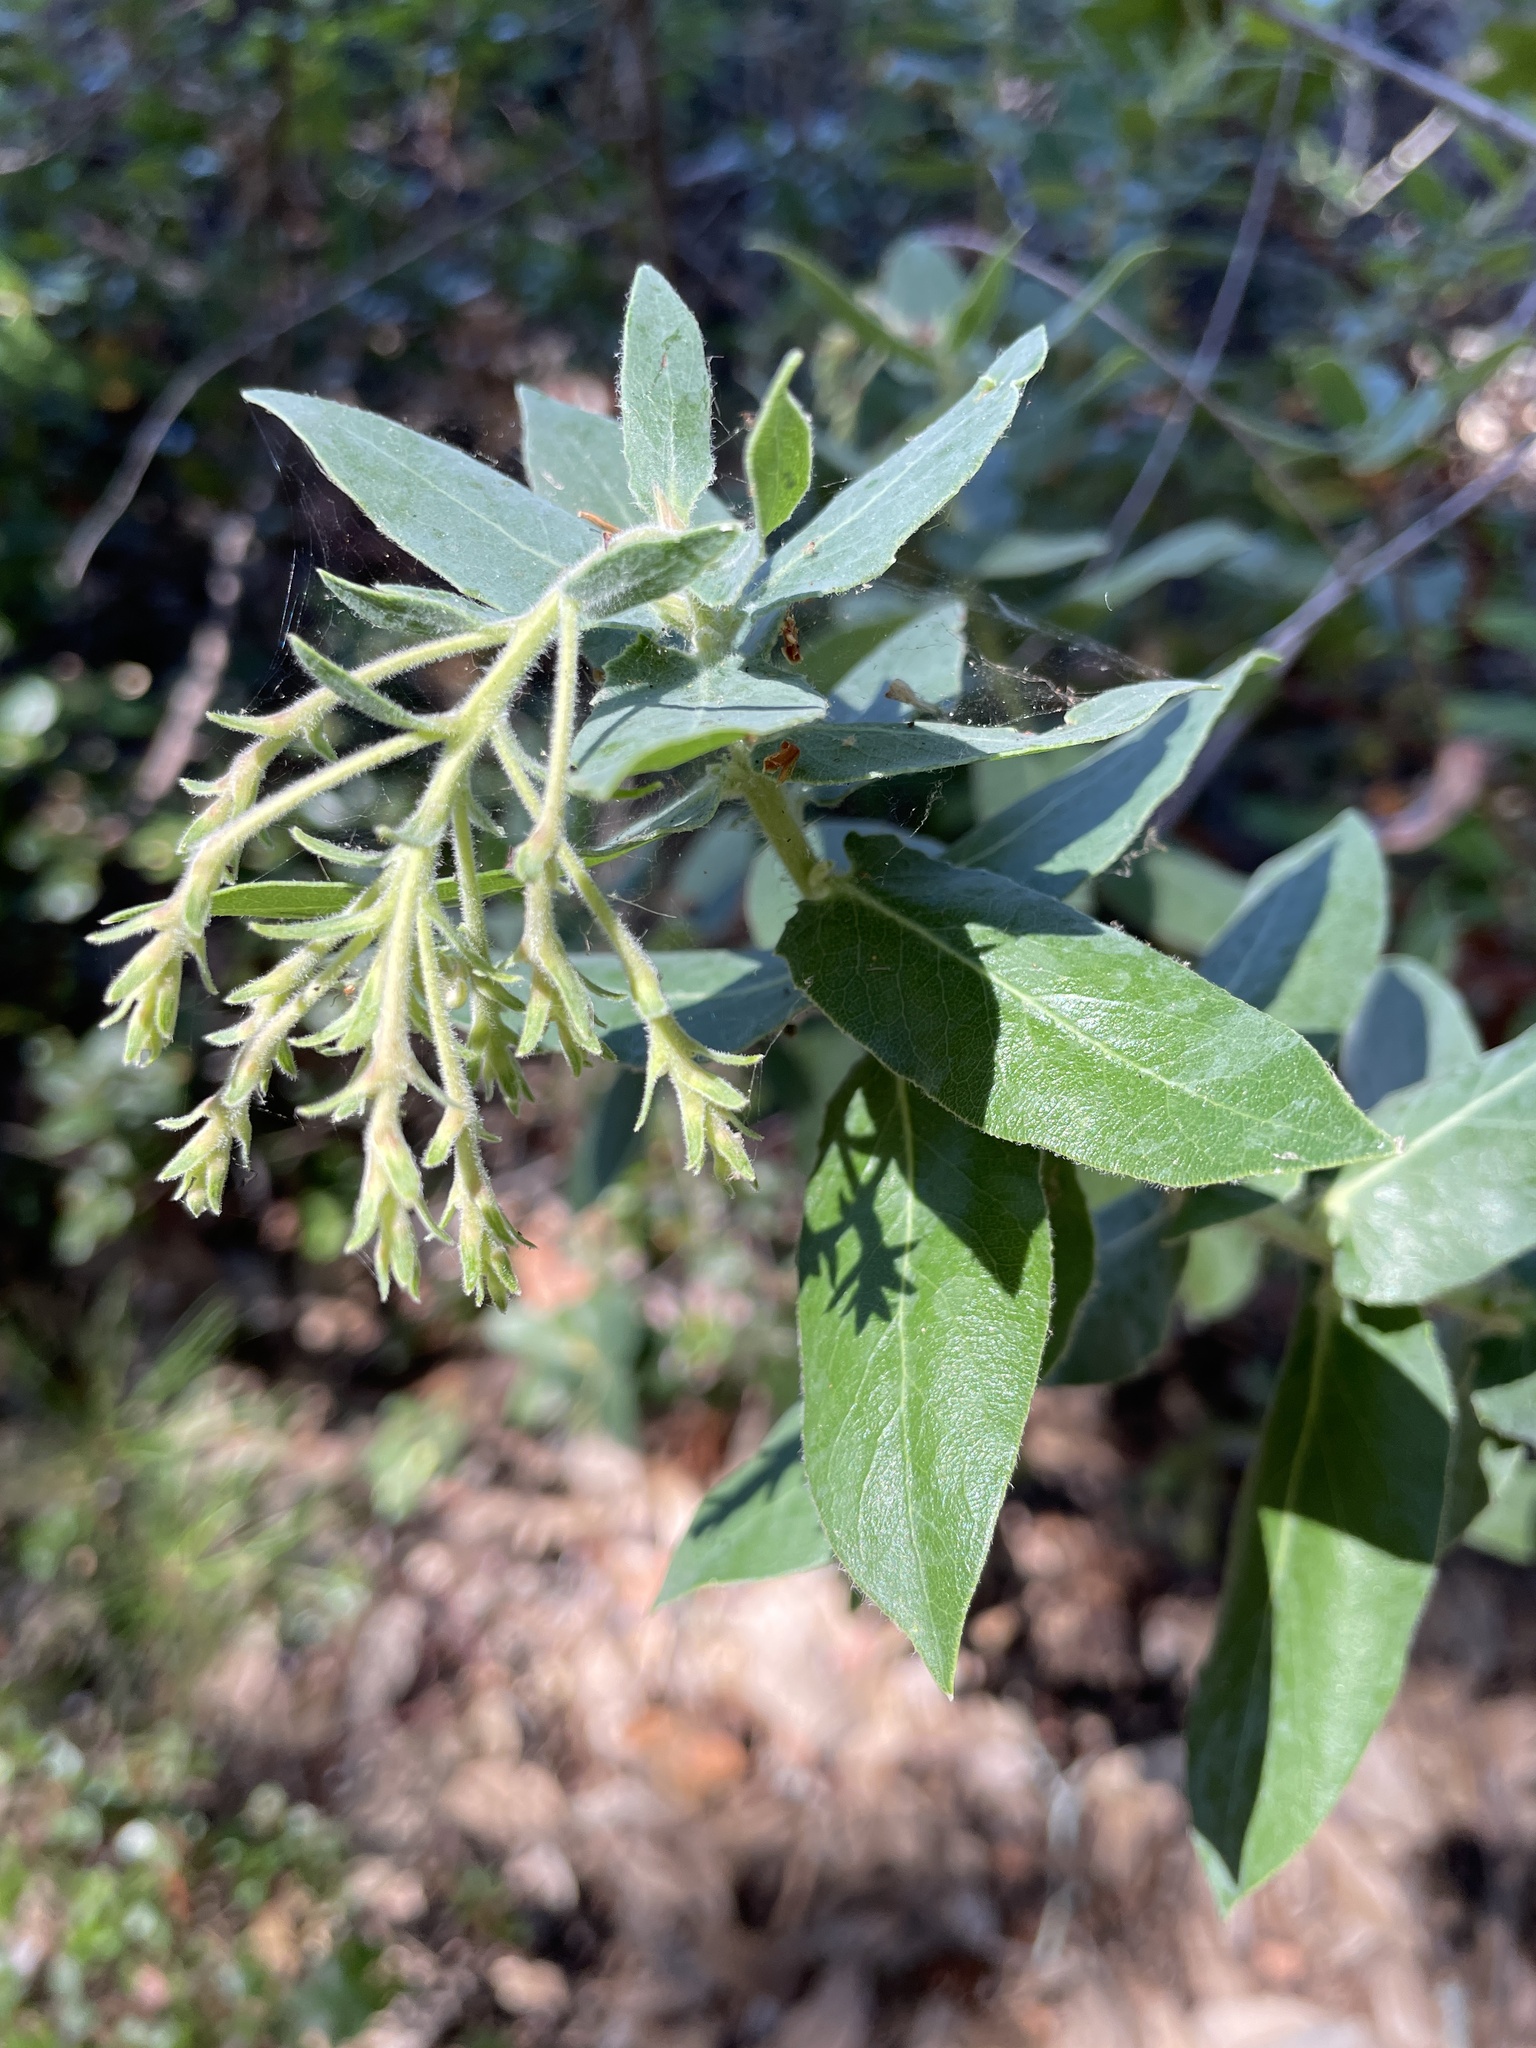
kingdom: Plantae
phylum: Tracheophyta
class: Magnoliopsida
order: Ericales
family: Ericaceae
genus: Arctostaphylos
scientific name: Arctostaphylos andersonii
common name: Santa cruz manzanita
